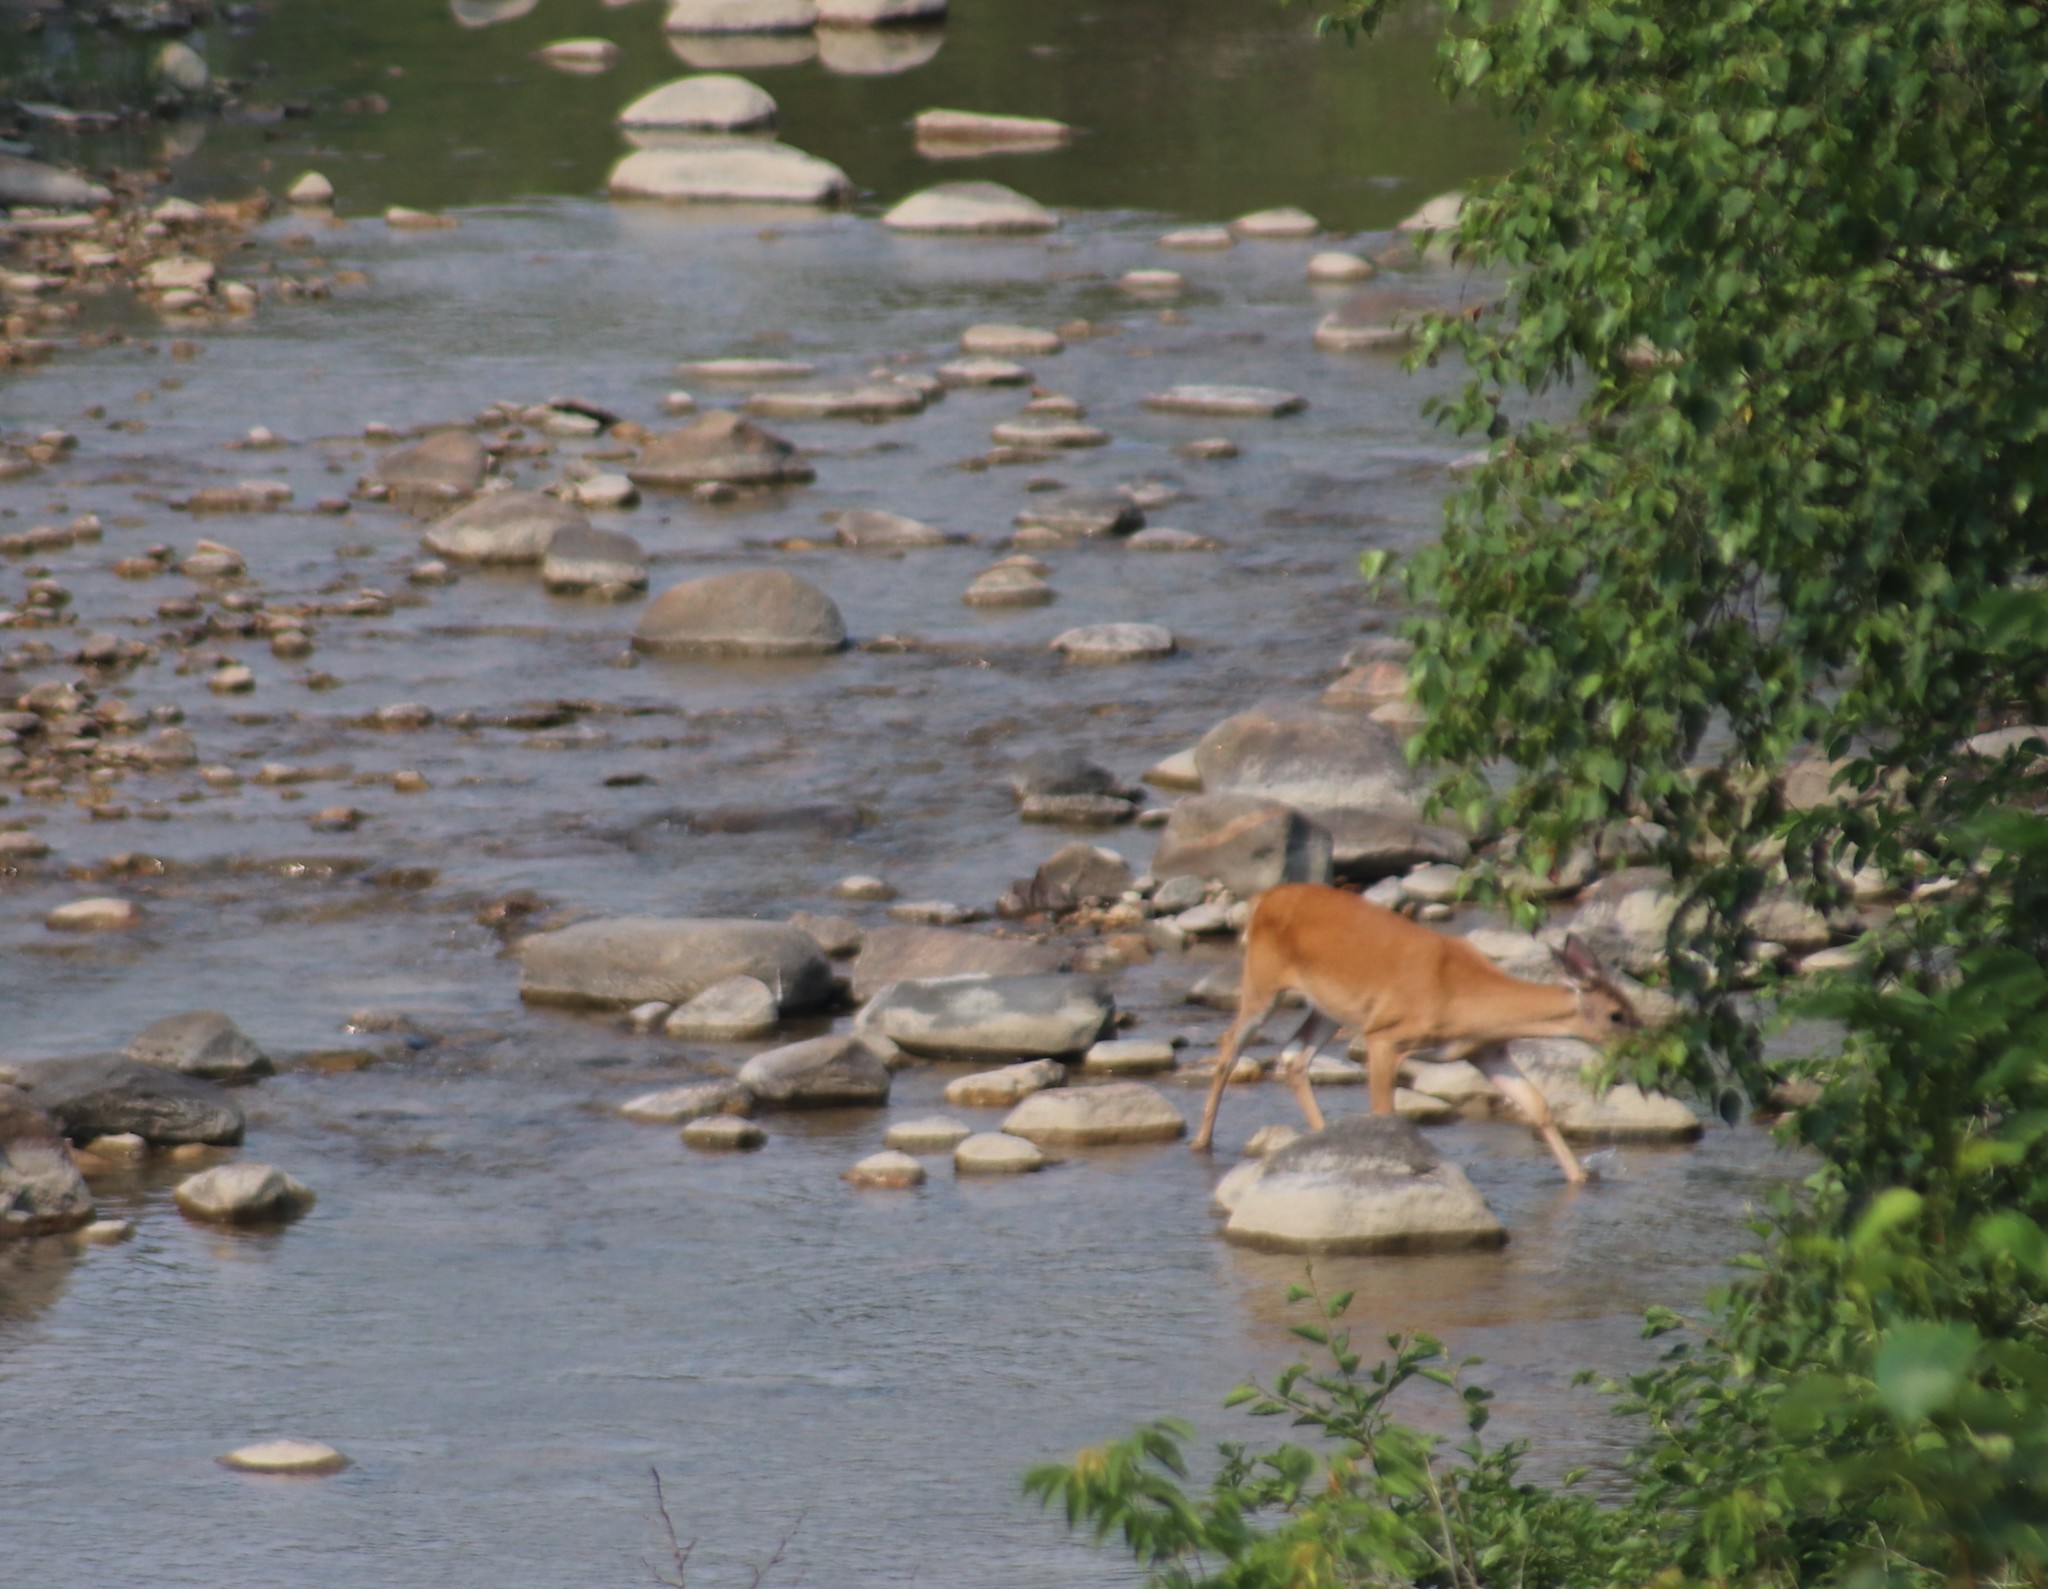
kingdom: Animalia
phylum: Chordata
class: Mammalia
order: Artiodactyla
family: Cervidae
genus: Odocoileus
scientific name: Odocoileus virginianus
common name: White-tailed deer
